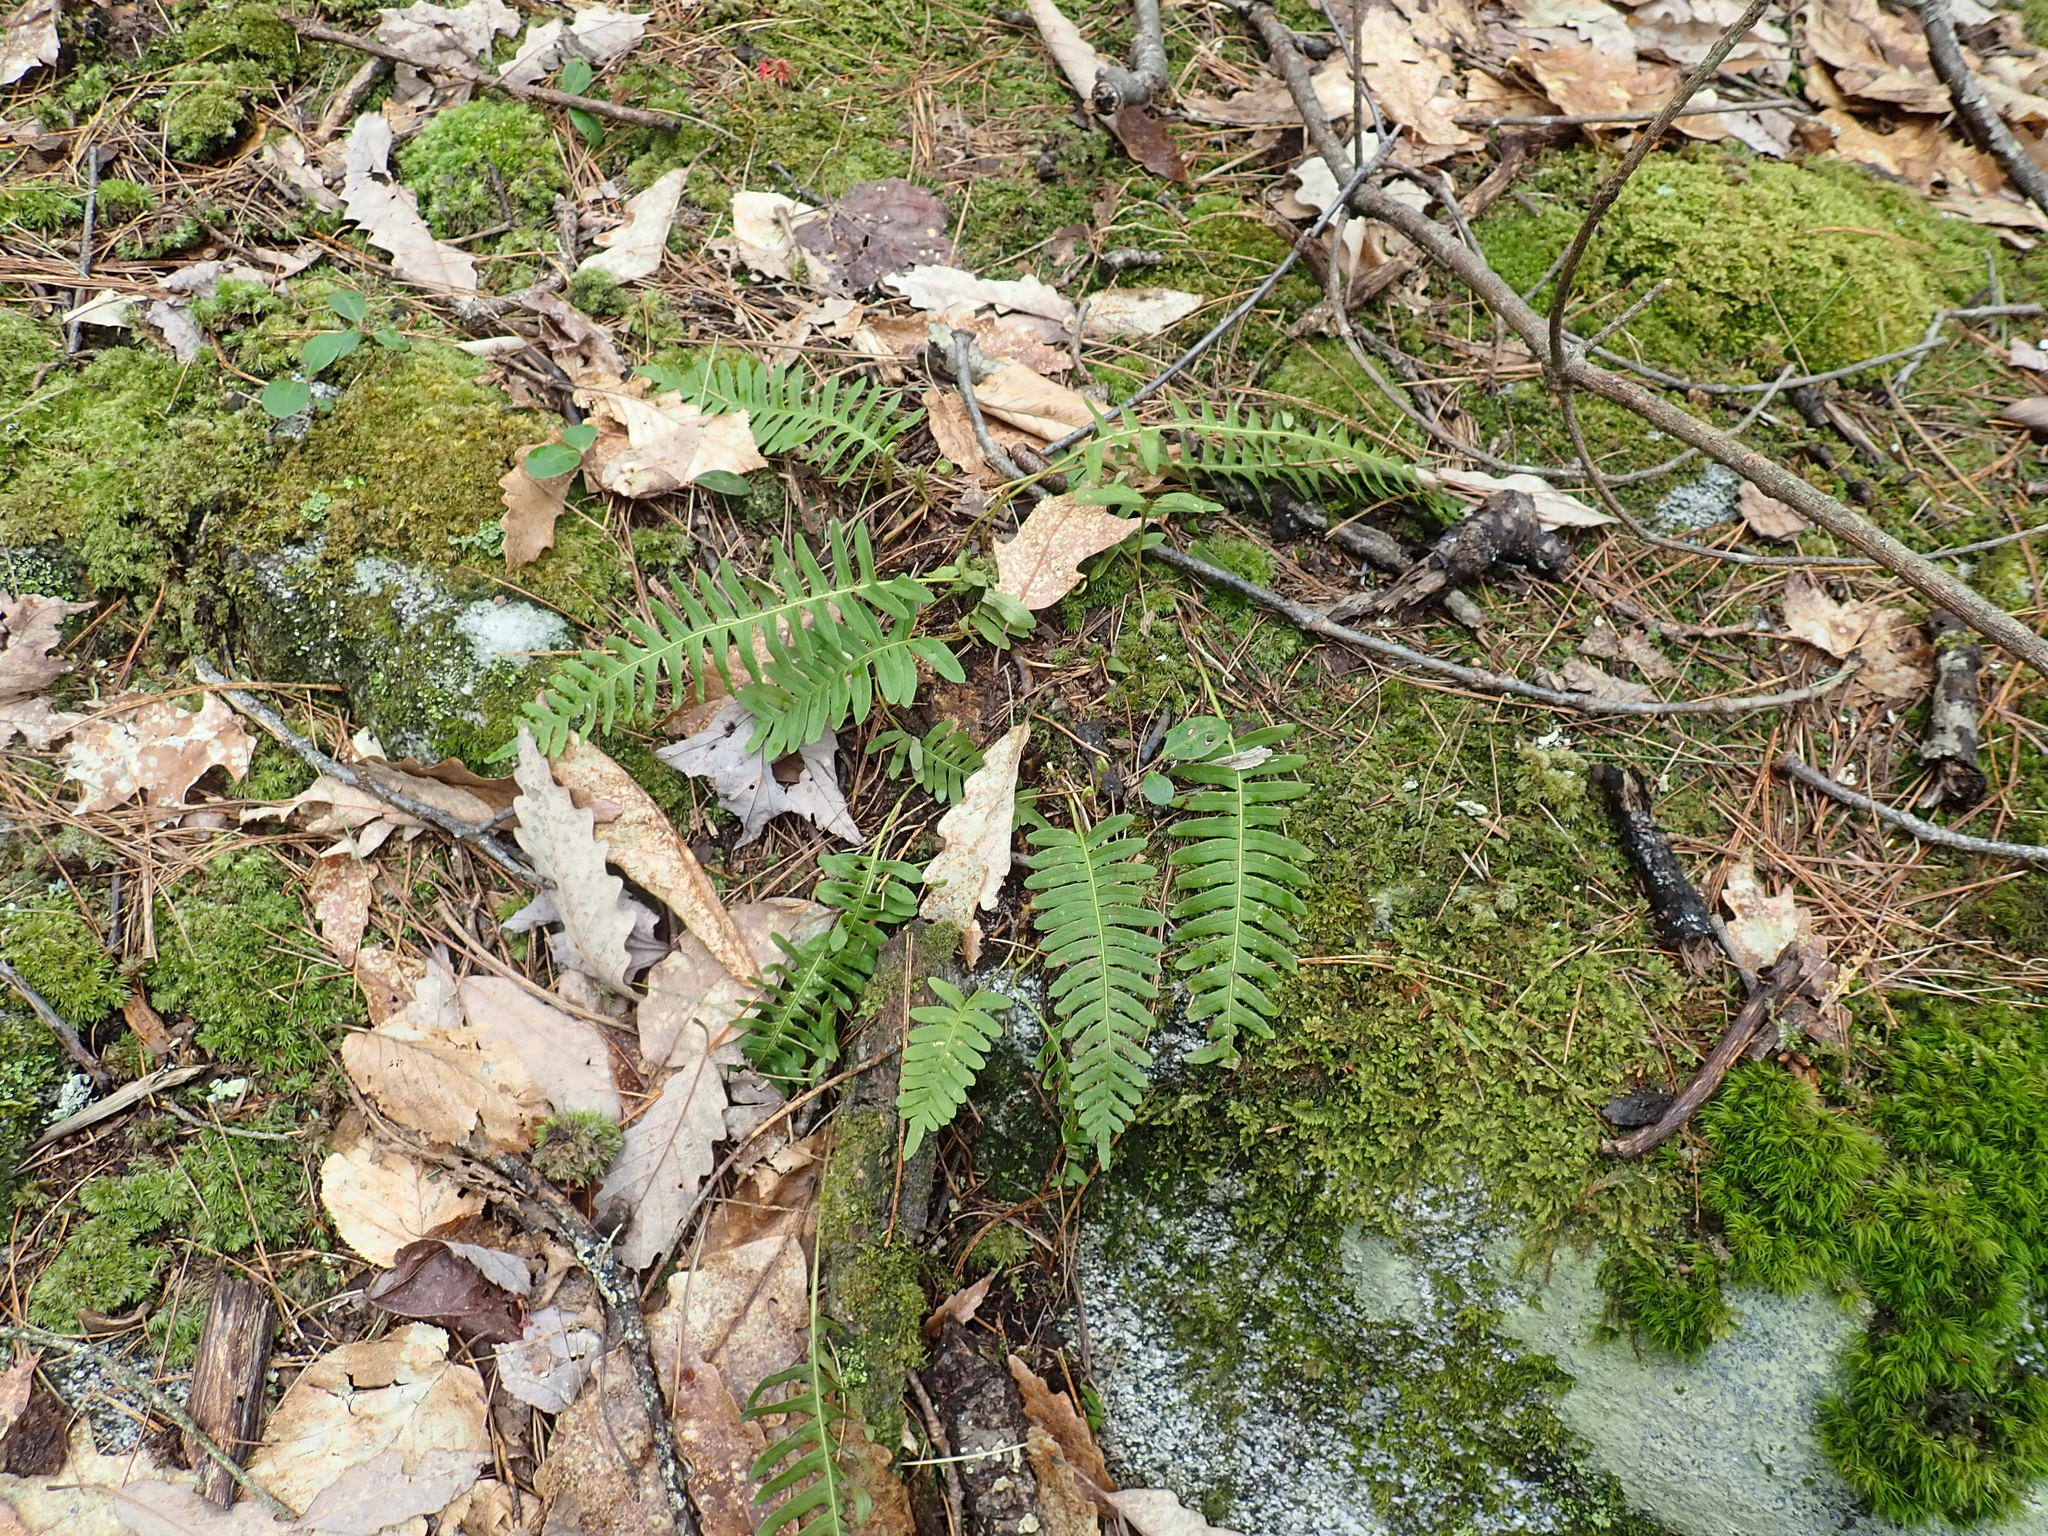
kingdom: Plantae
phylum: Tracheophyta
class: Polypodiopsida
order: Polypodiales
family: Polypodiaceae
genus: Polypodium
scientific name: Polypodium
